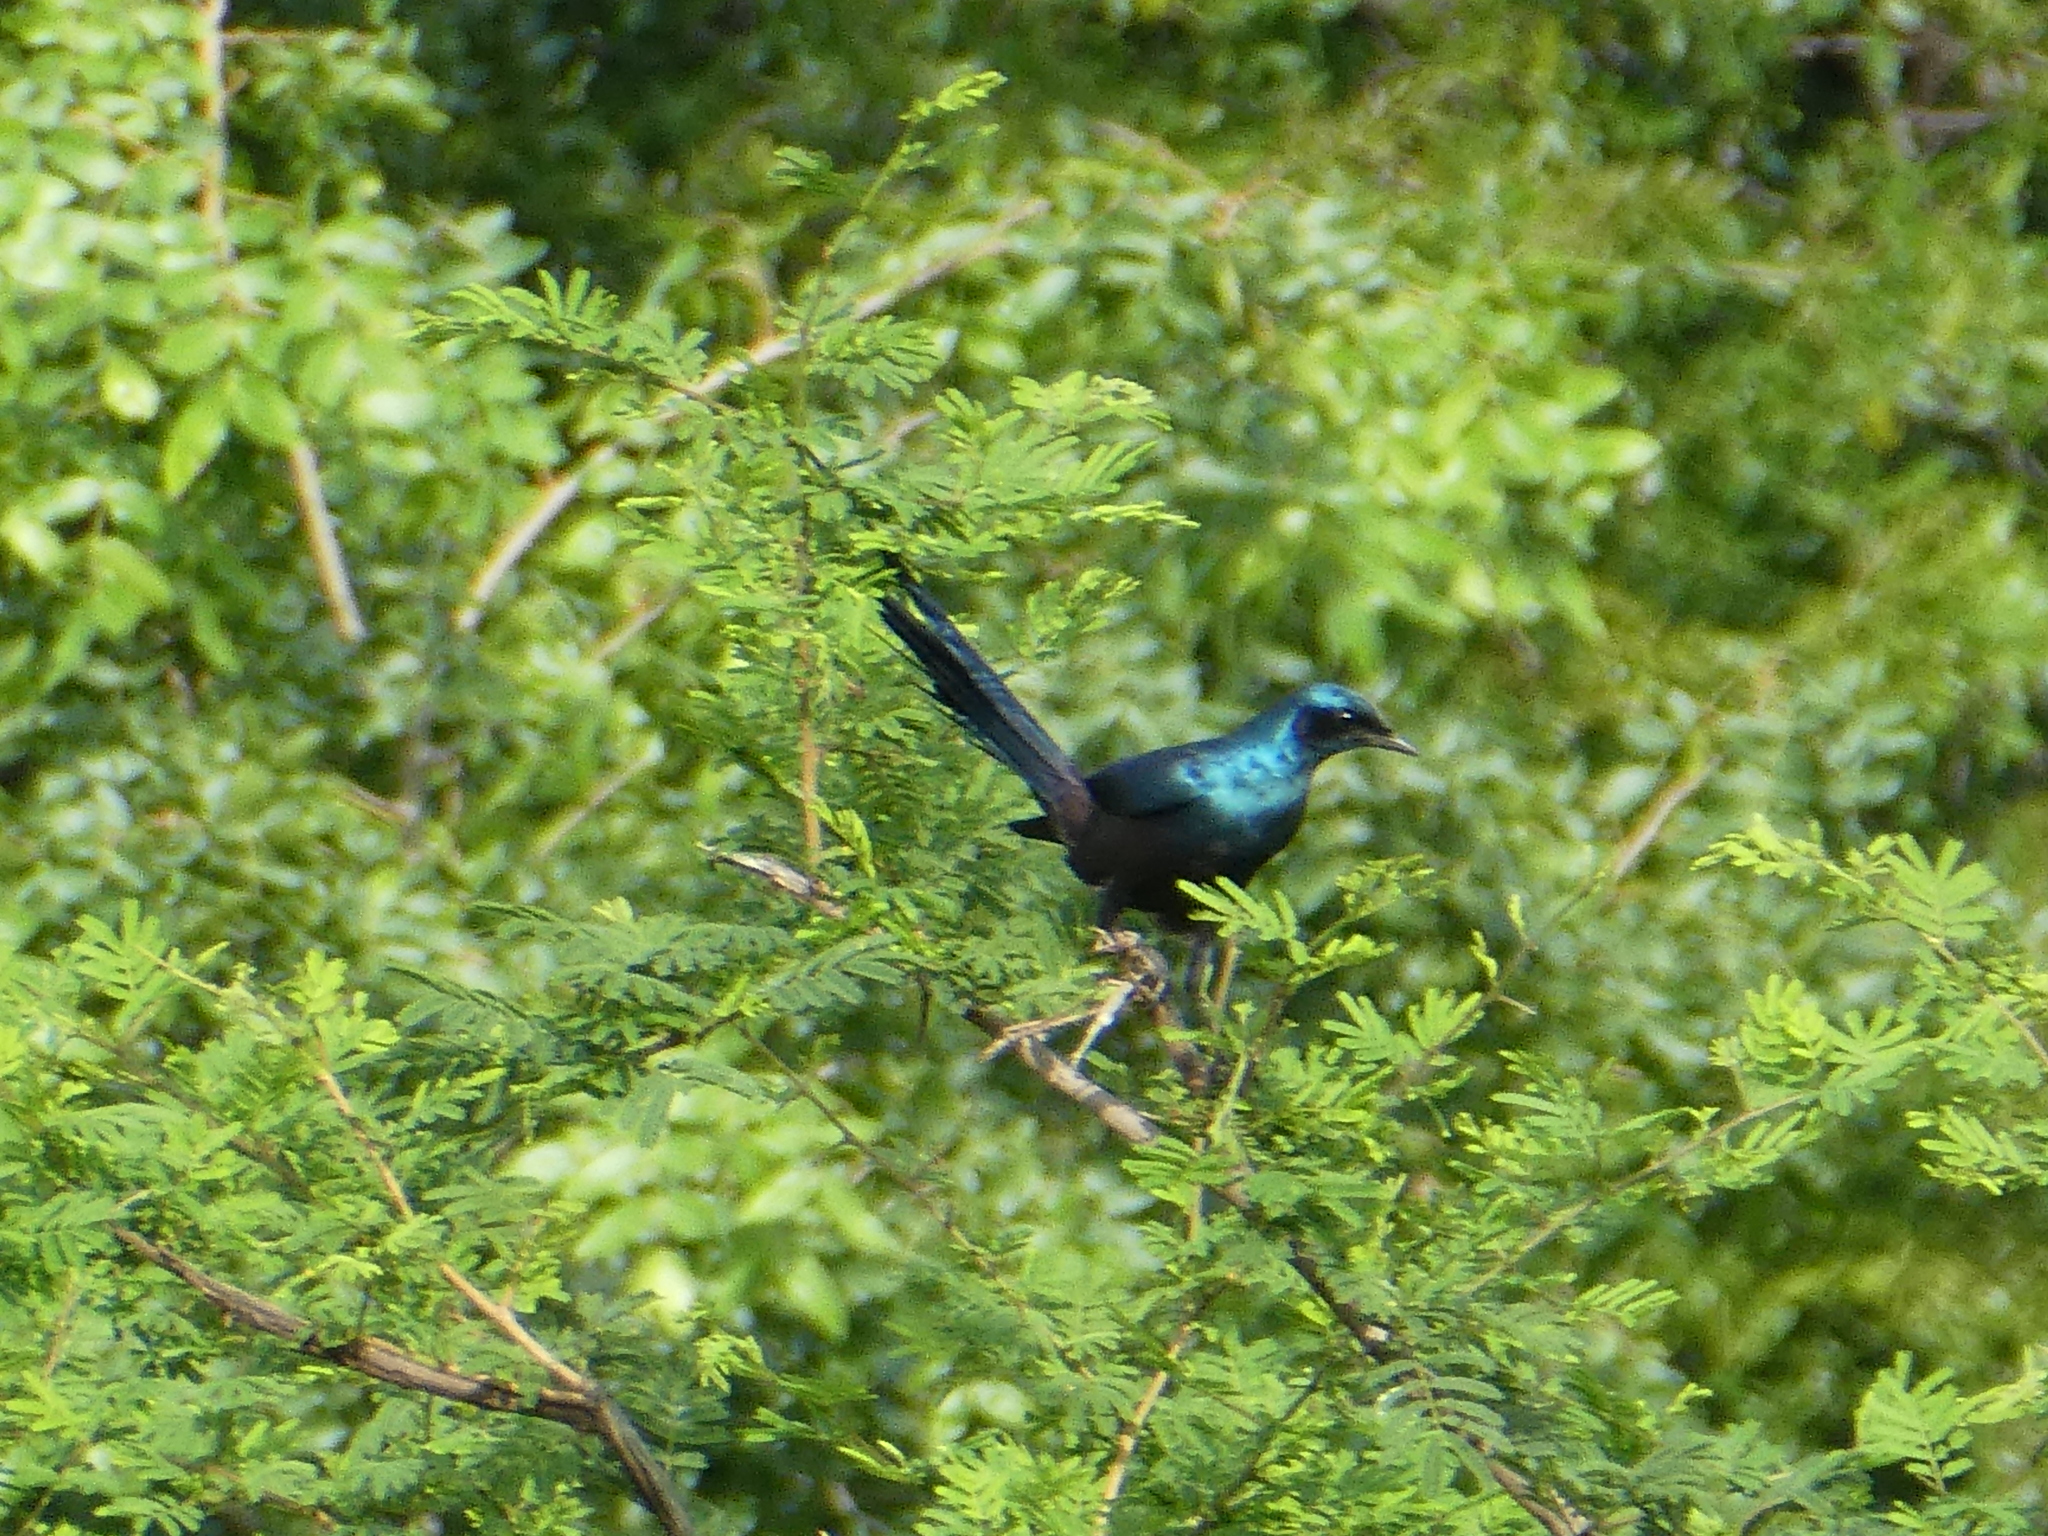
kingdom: Animalia
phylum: Chordata
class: Aves
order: Passeriformes
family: Sturnidae
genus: Lamprotornis
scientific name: Lamprotornis mevesii
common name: Meves's starling
